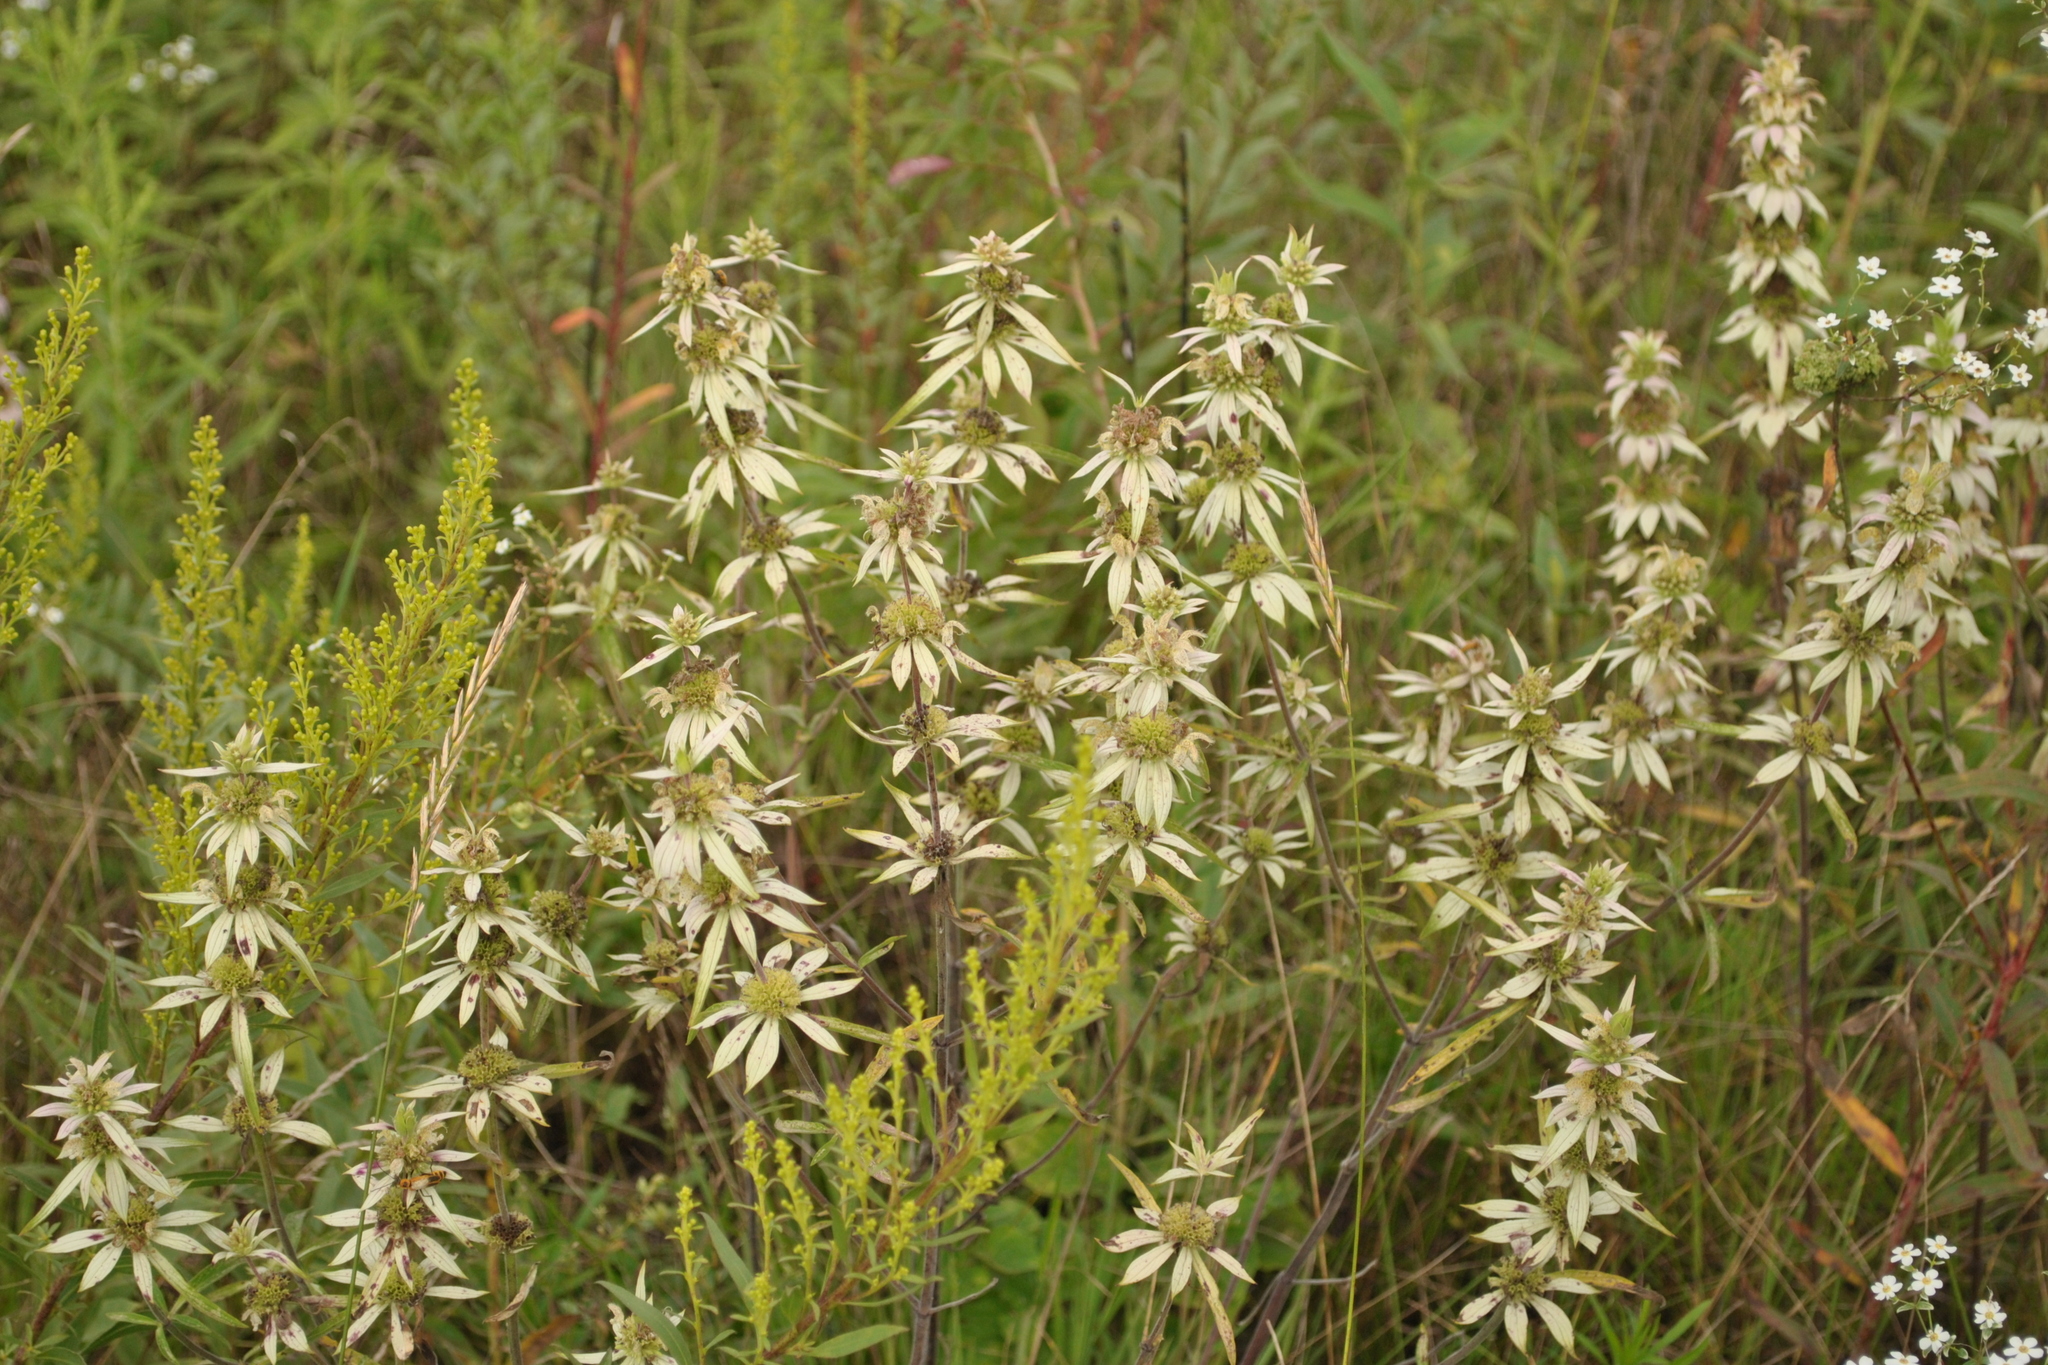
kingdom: Plantae
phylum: Tracheophyta
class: Magnoliopsida
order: Lamiales
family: Lamiaceae
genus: Monarda
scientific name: Monarda punctata
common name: Dotted monarda
